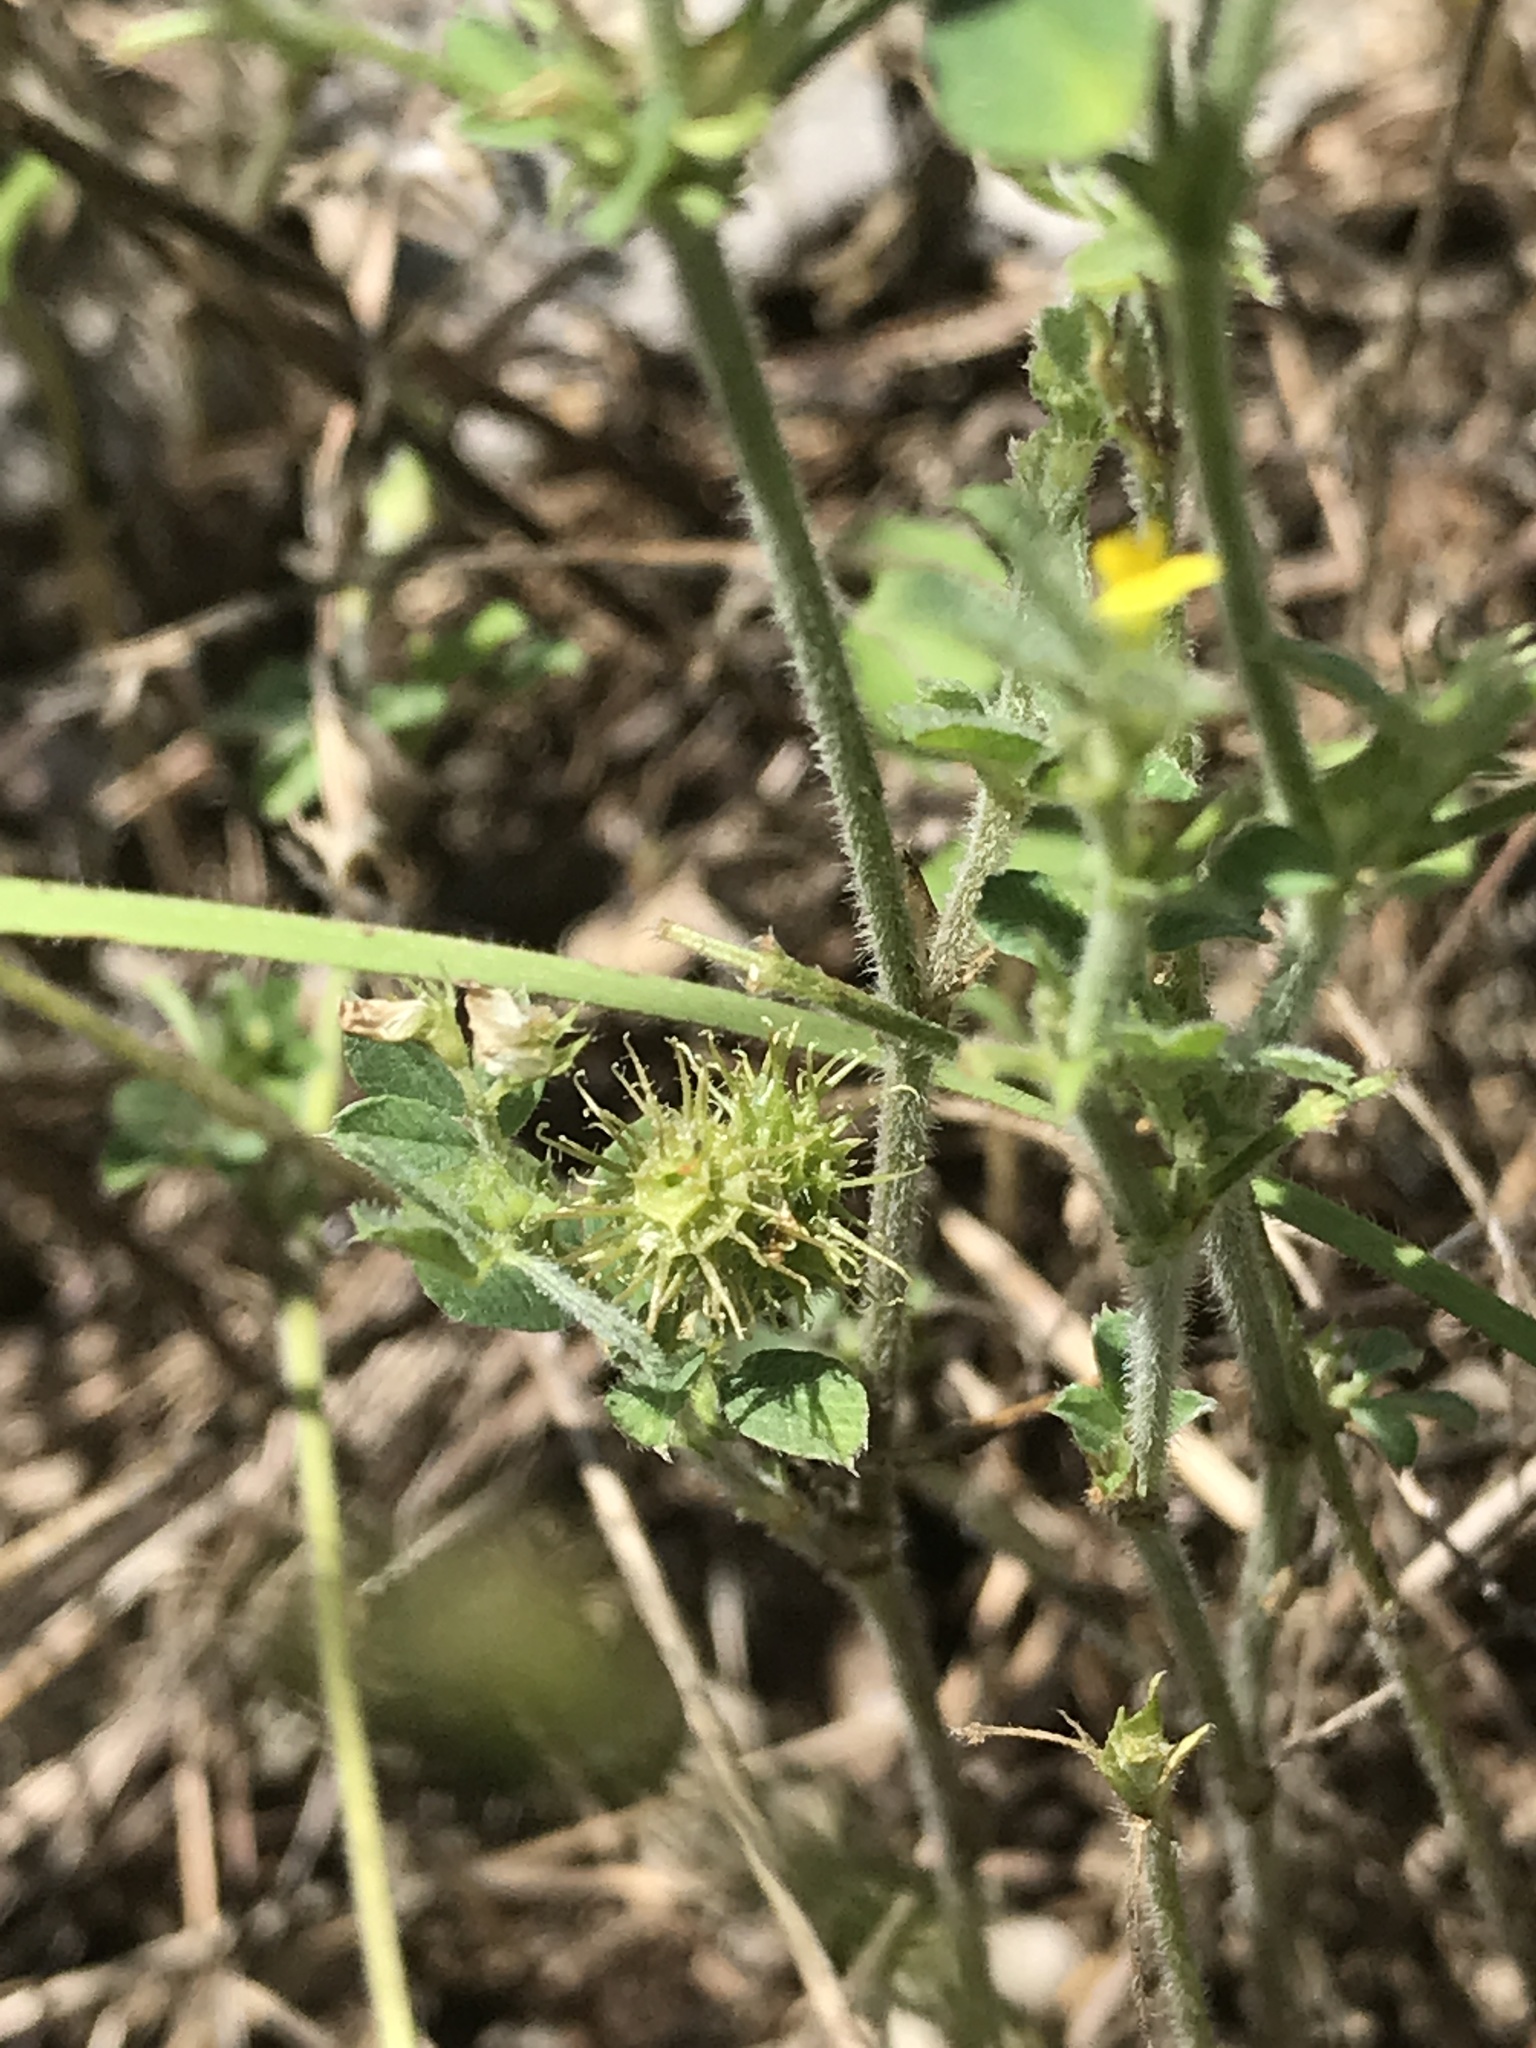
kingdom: Plantae
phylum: Tracheophyta
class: Magnoliopsida
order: Fabales
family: Fabaceae
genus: Medicago
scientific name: Medicago minima
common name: Little bur-clover
